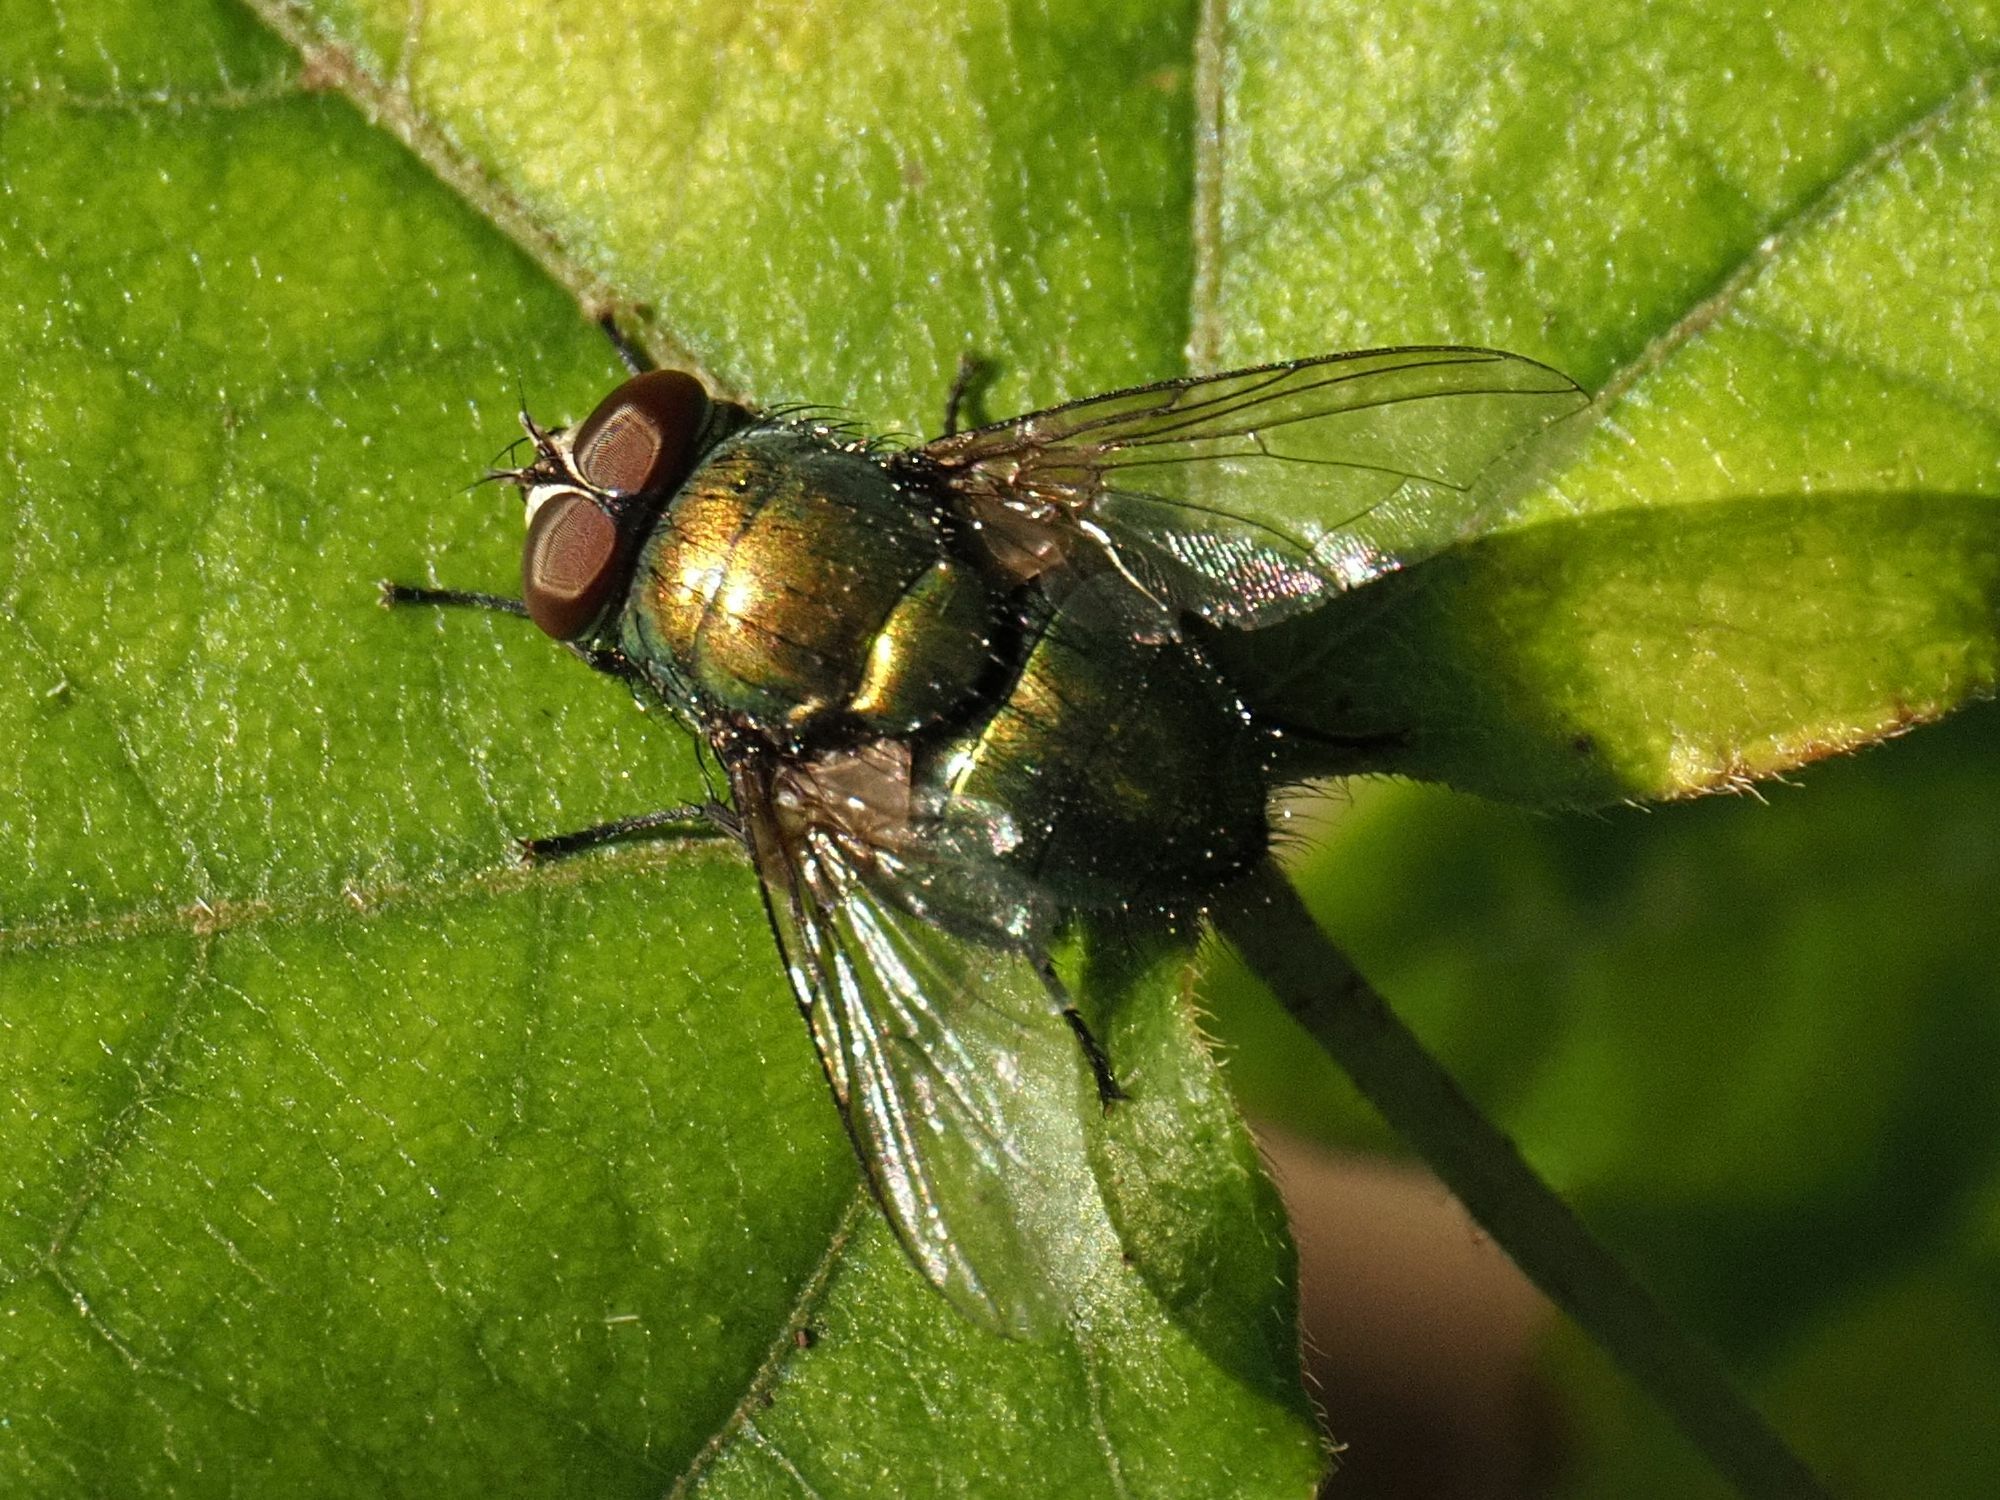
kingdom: Animalia
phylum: Arthropoda
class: Insecta
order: Diptera
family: Calliphoridae
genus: Lucilia
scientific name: Lucilia
